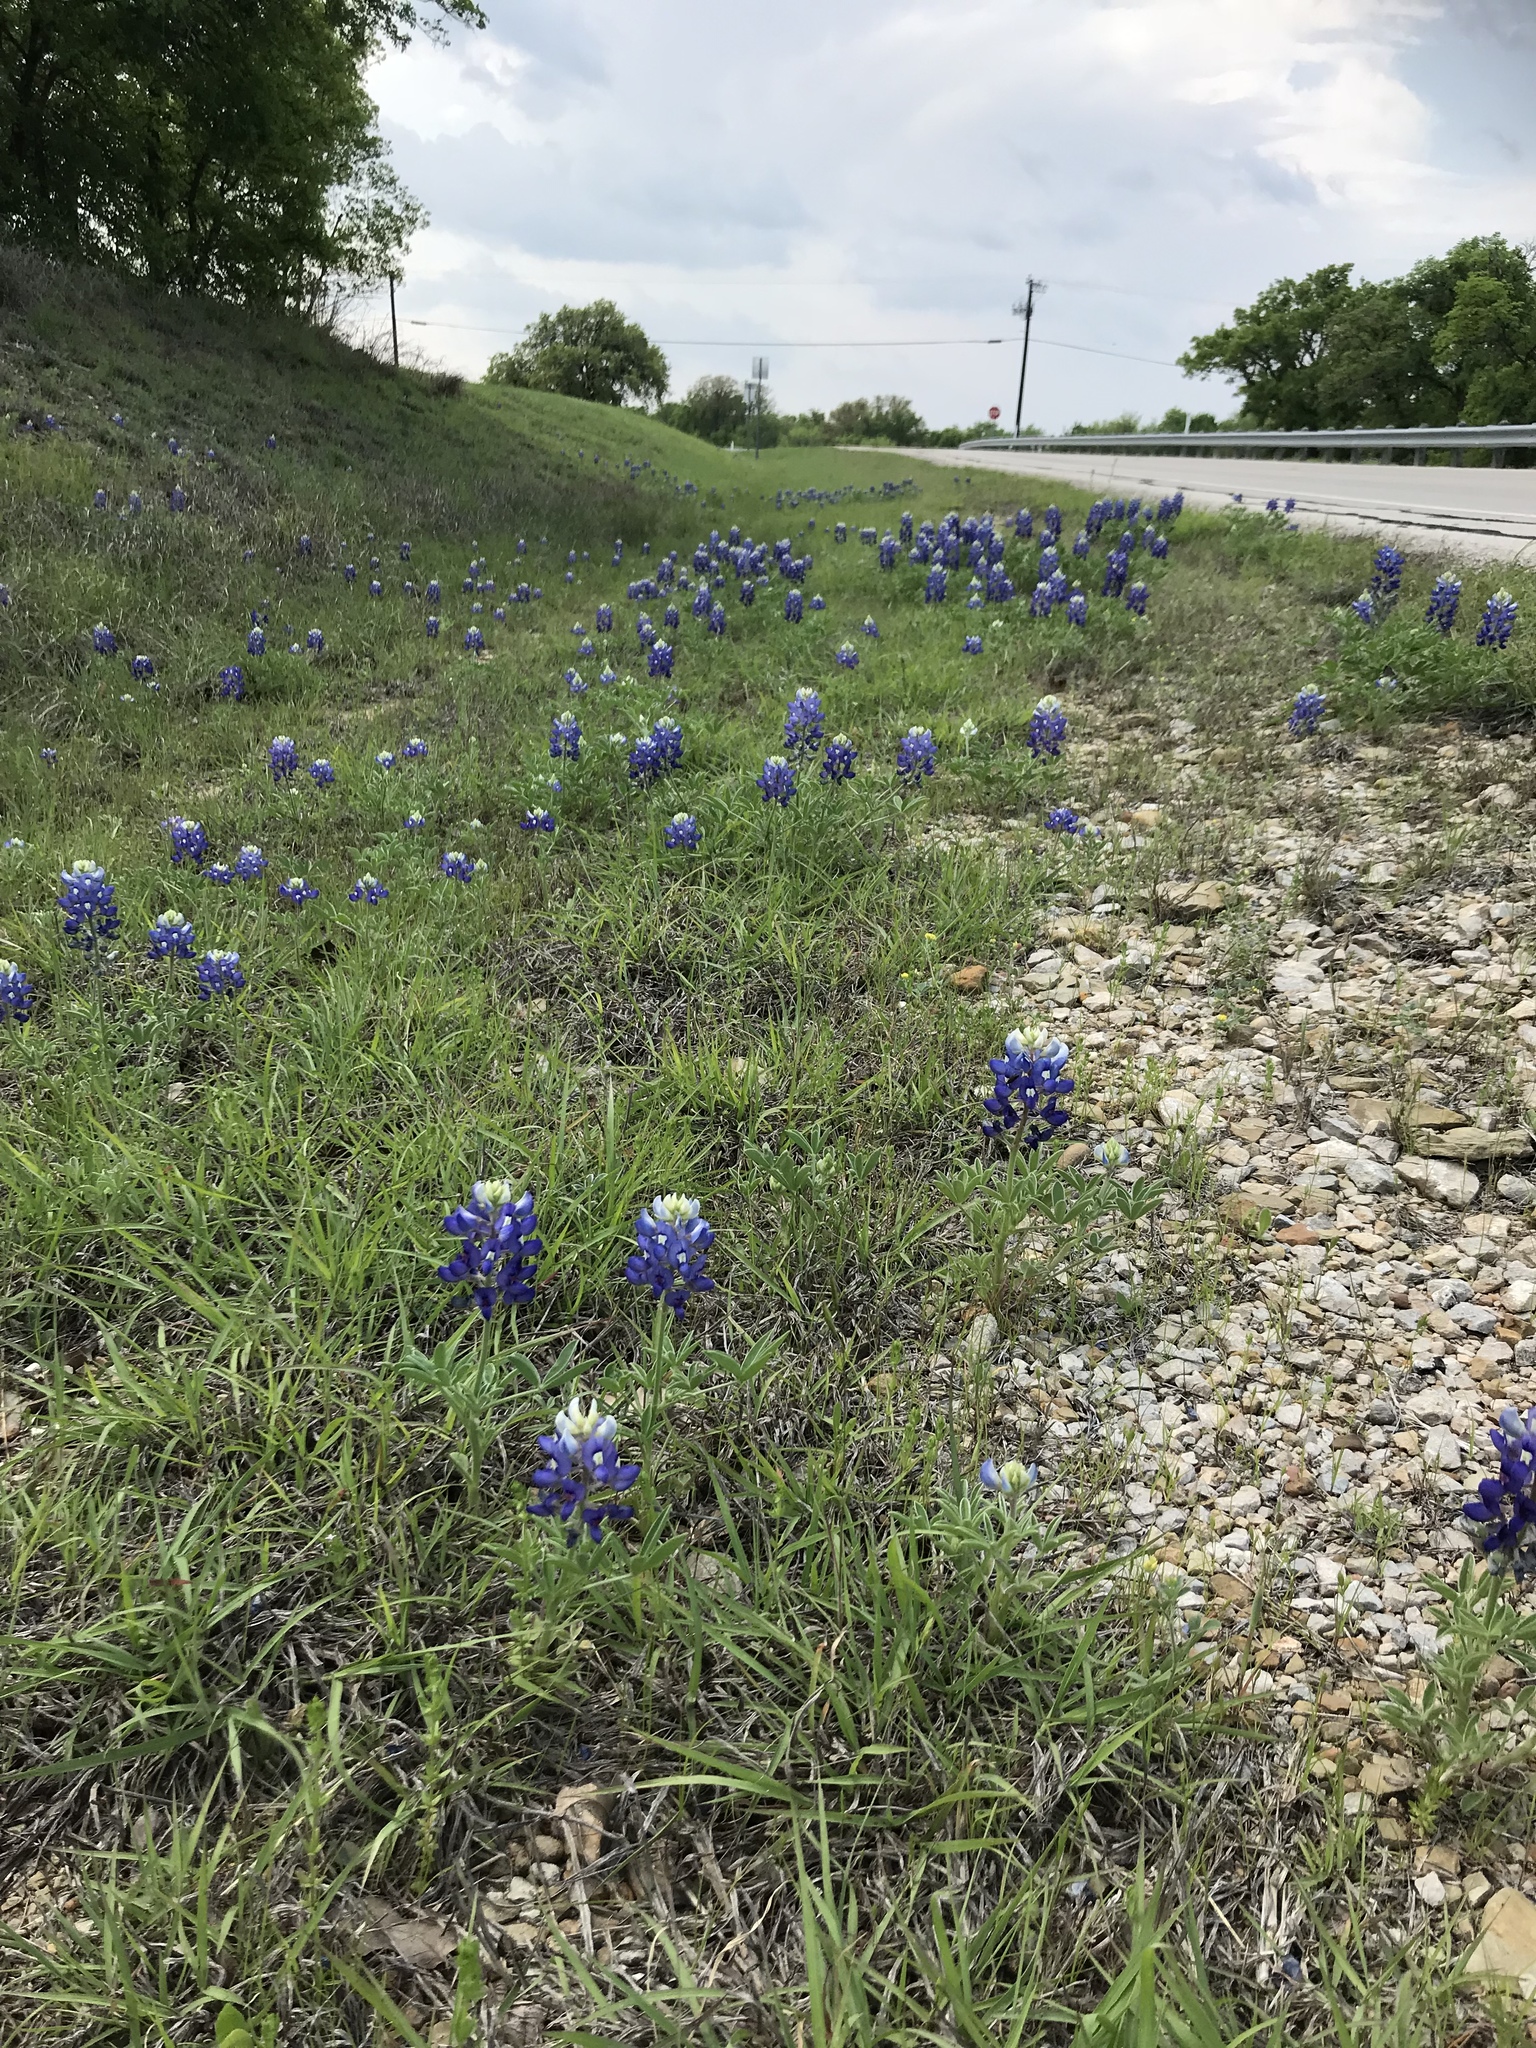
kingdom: Plantae
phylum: Tracheophyta
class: Magnoliopsida
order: Fabales
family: Fabaceae
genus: Lupinus
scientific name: Lupinus texensis
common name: Texas bluebonnet
